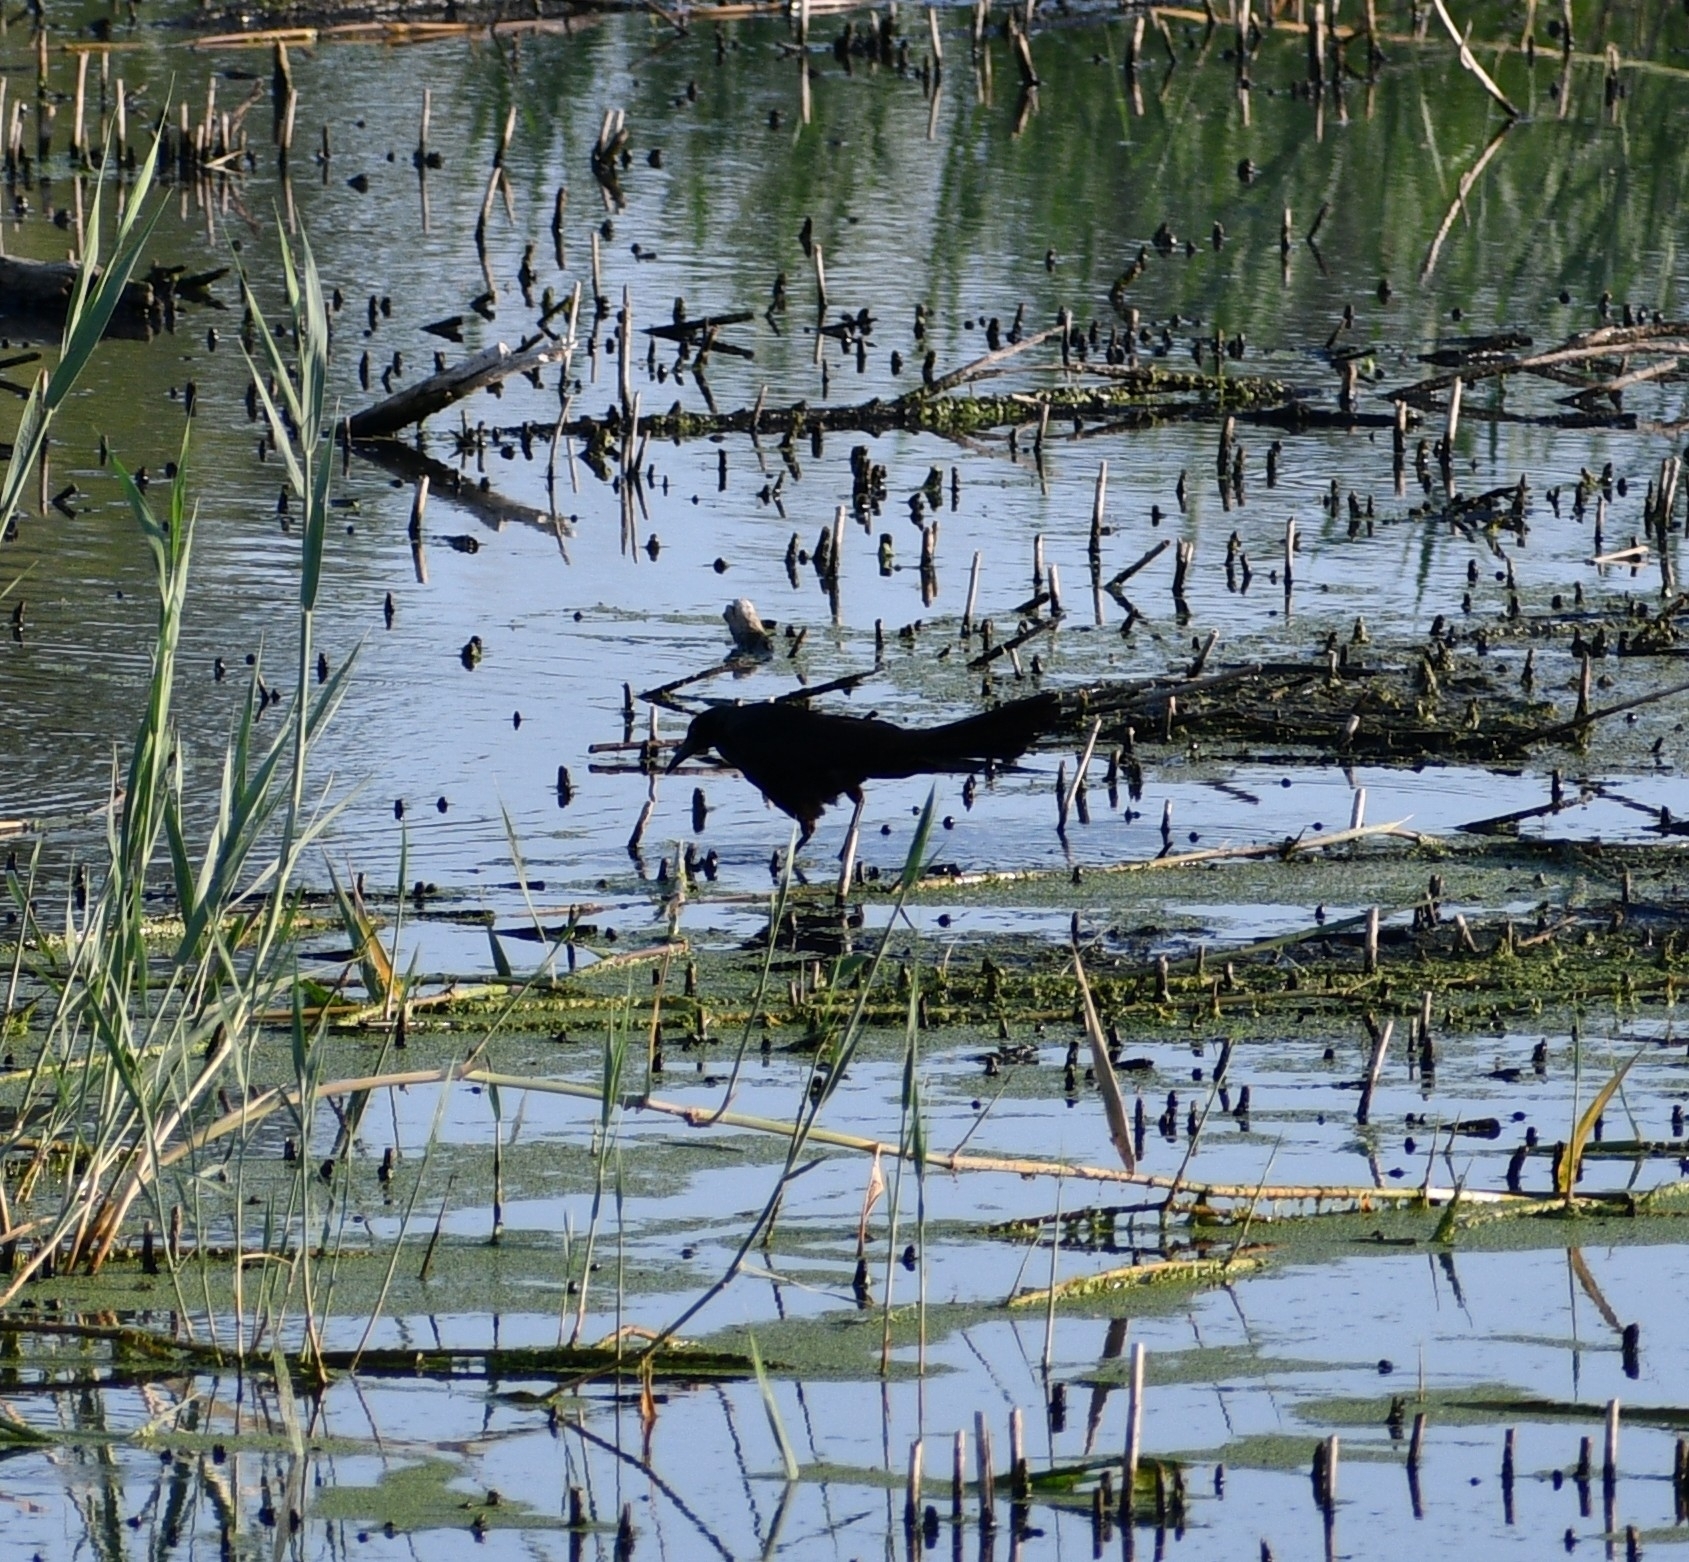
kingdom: Animalia
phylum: Chordata
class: Aves
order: Passeriformes
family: Icteridae
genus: Quiscalus
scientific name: Quiscalus mexicanus
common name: Great-tailed grackle
